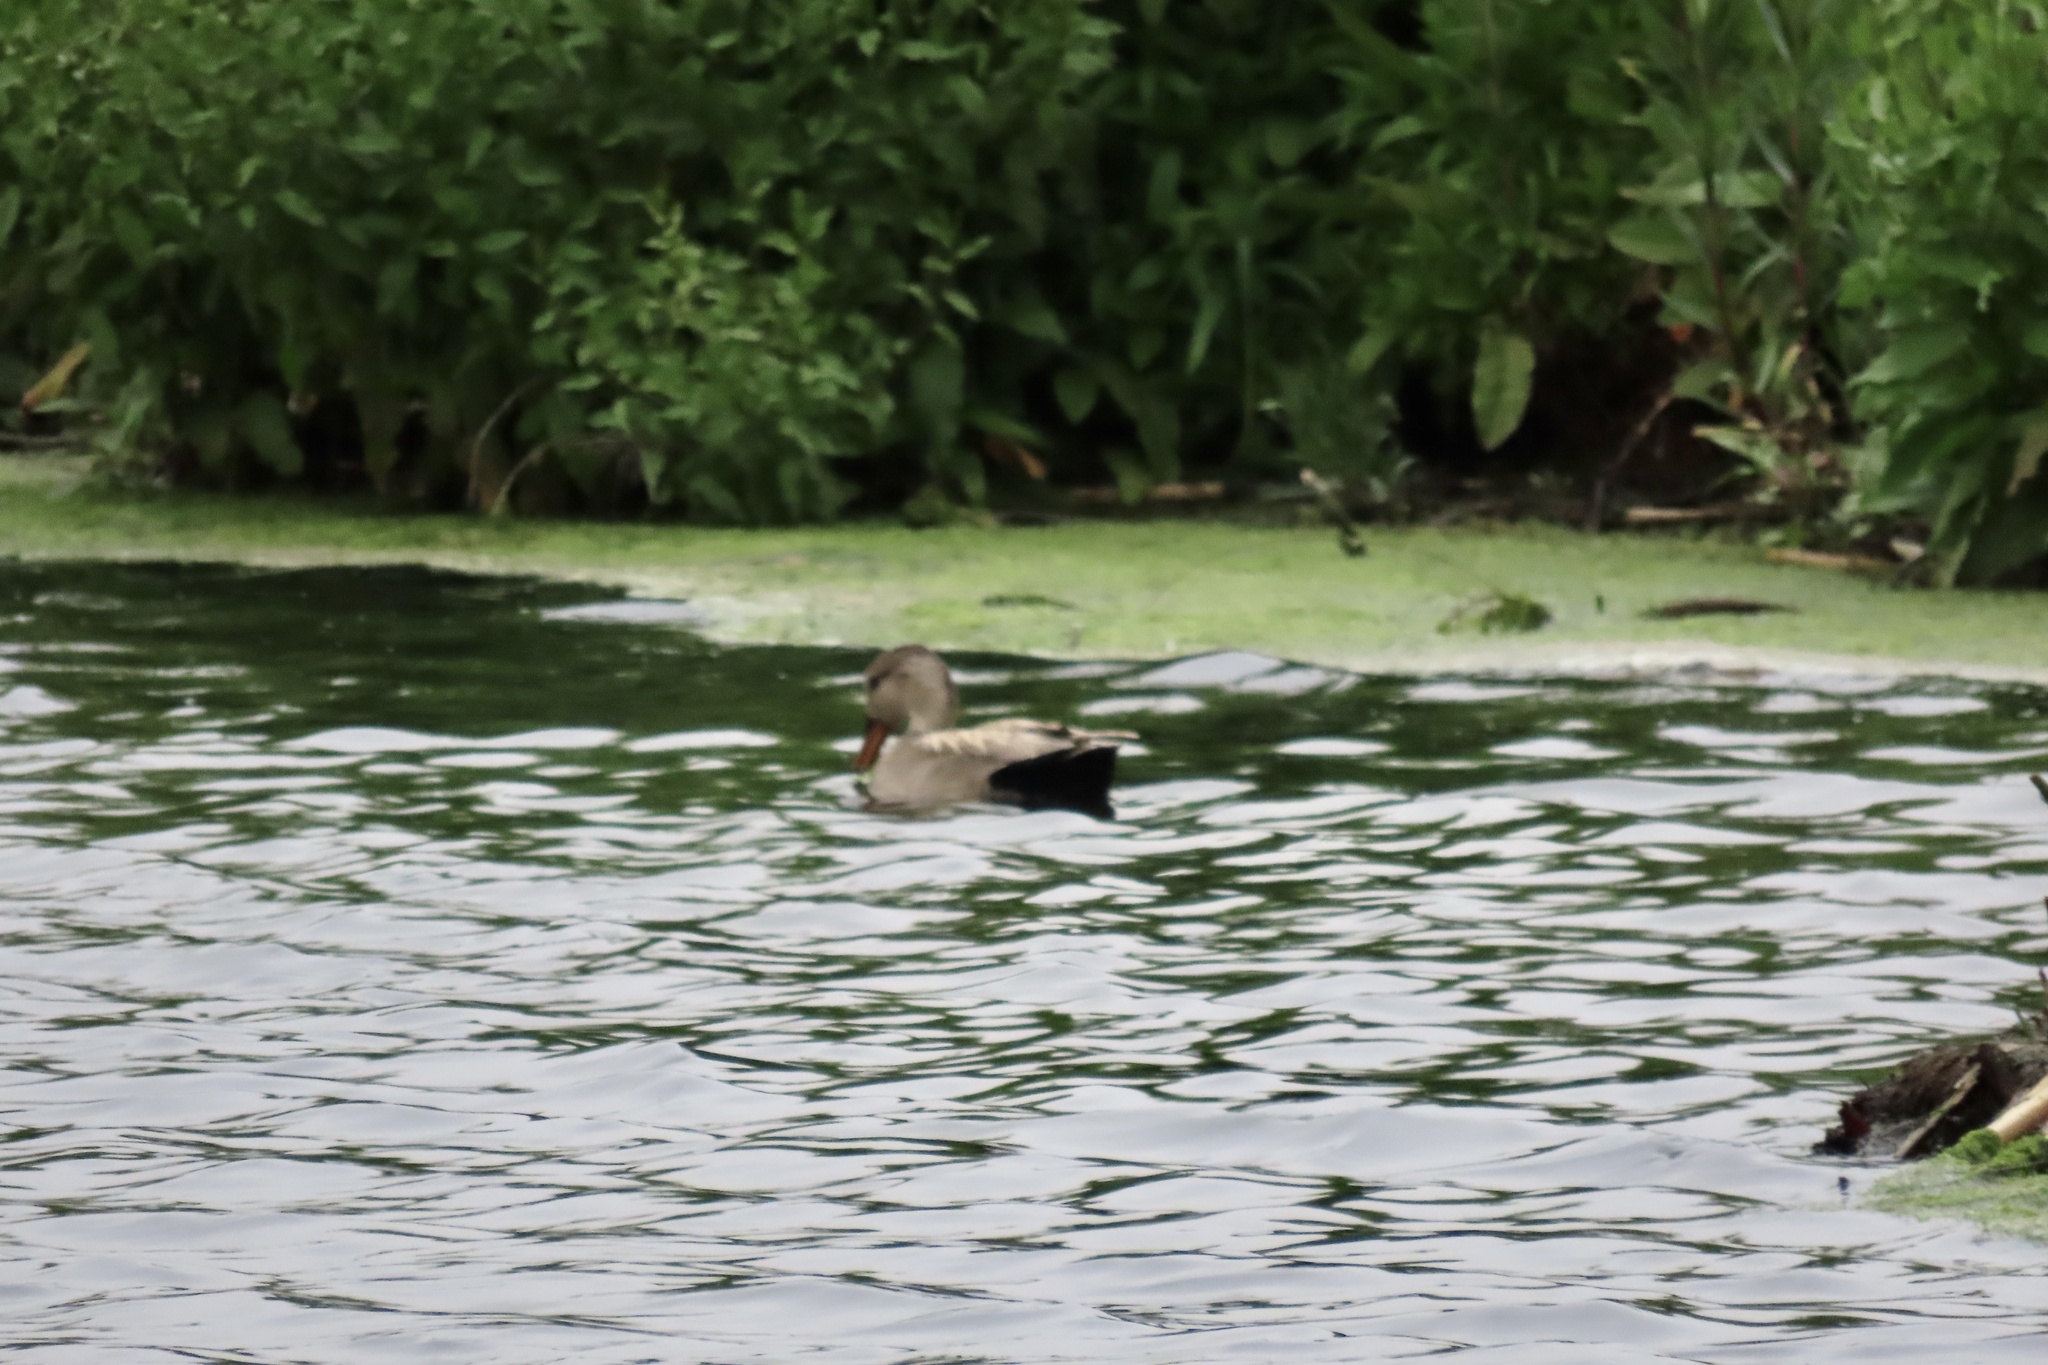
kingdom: Animalia
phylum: Chordata
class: Aves
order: Anseriformes
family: Anatidae
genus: Mareca
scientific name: Mareca strepera
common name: Gadwall
